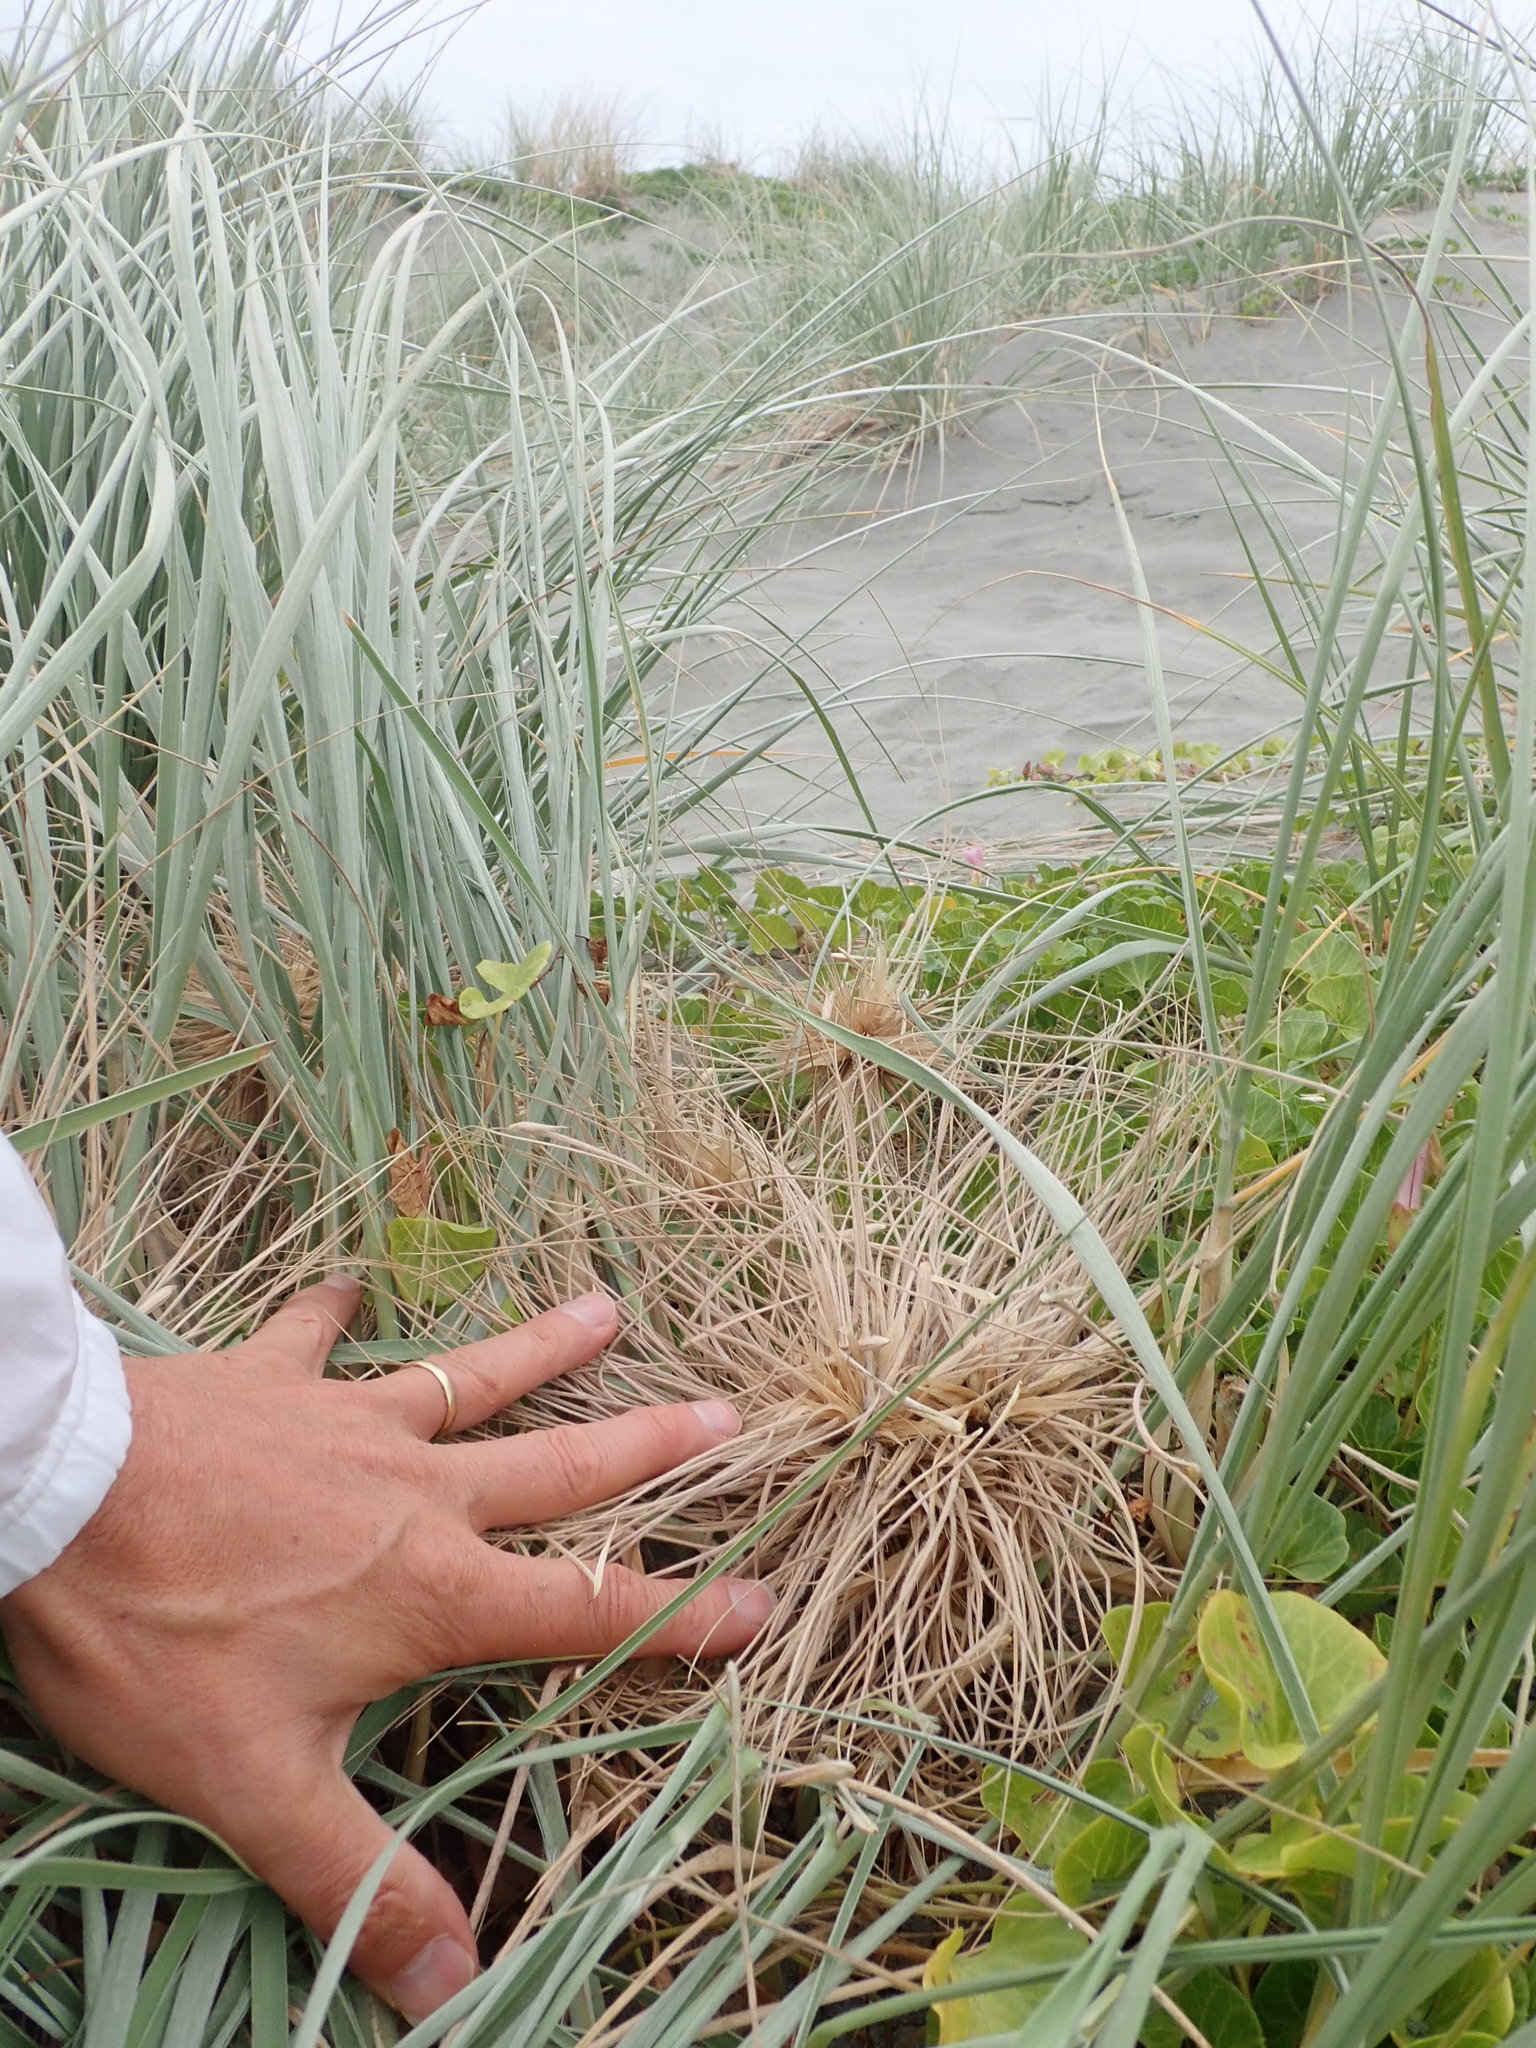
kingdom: Animalia
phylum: Arthropoda
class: Insecta
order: Coleoptera
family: Coccinellidae
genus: Coccinella
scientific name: Coccinella undecimpunctata
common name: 11-spot ladybird
